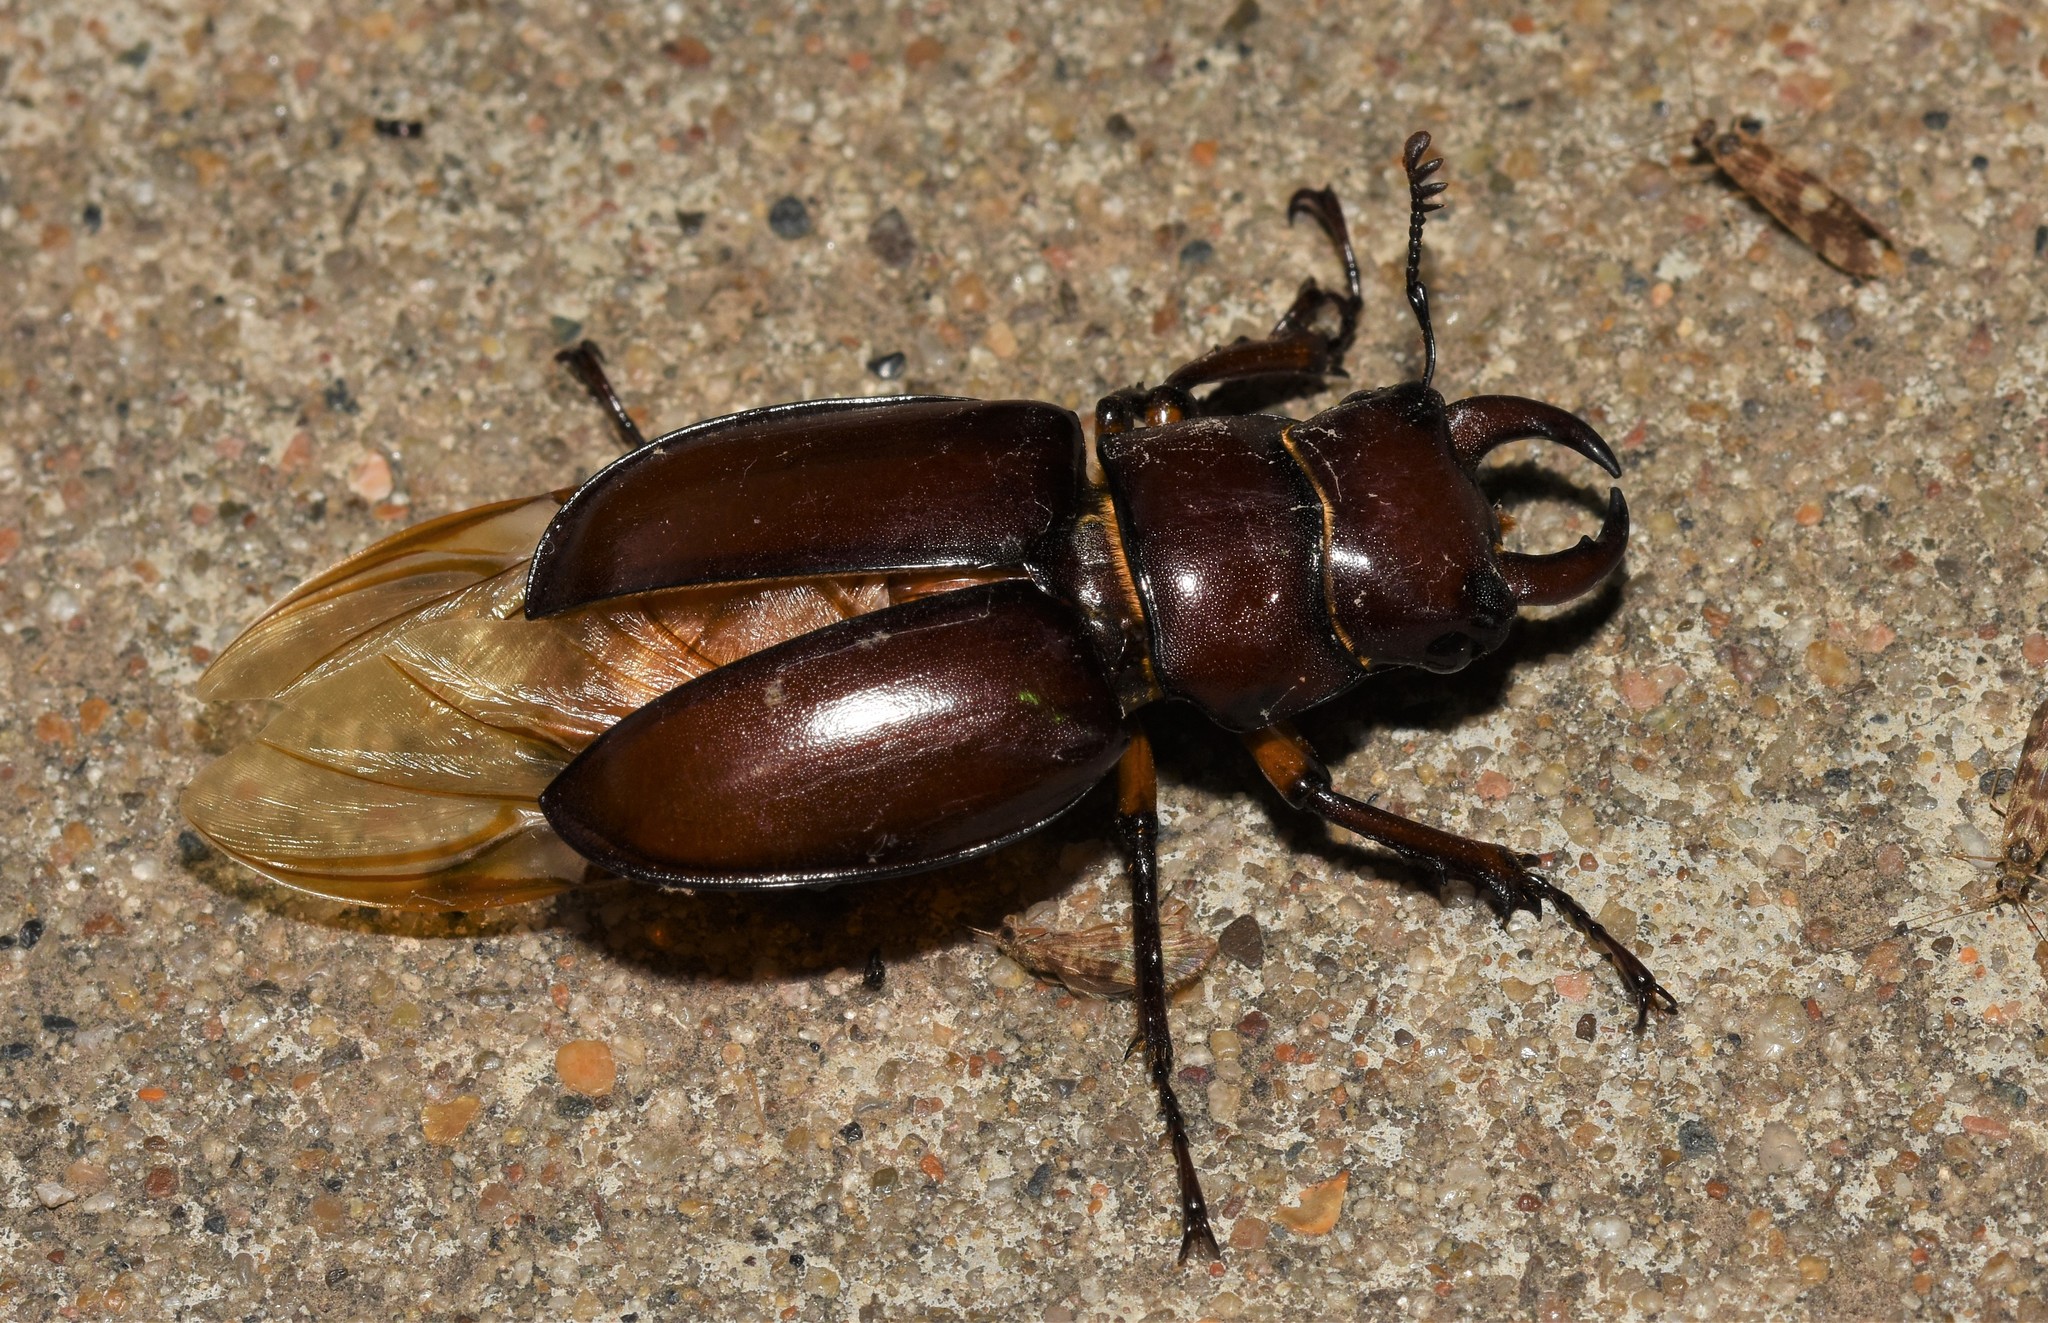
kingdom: Animalia
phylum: Arthropoda
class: Insecta
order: Coleoptera
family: Lucanidae
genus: Lucanus
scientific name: Lucanus capreolus
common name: Stag beetle
